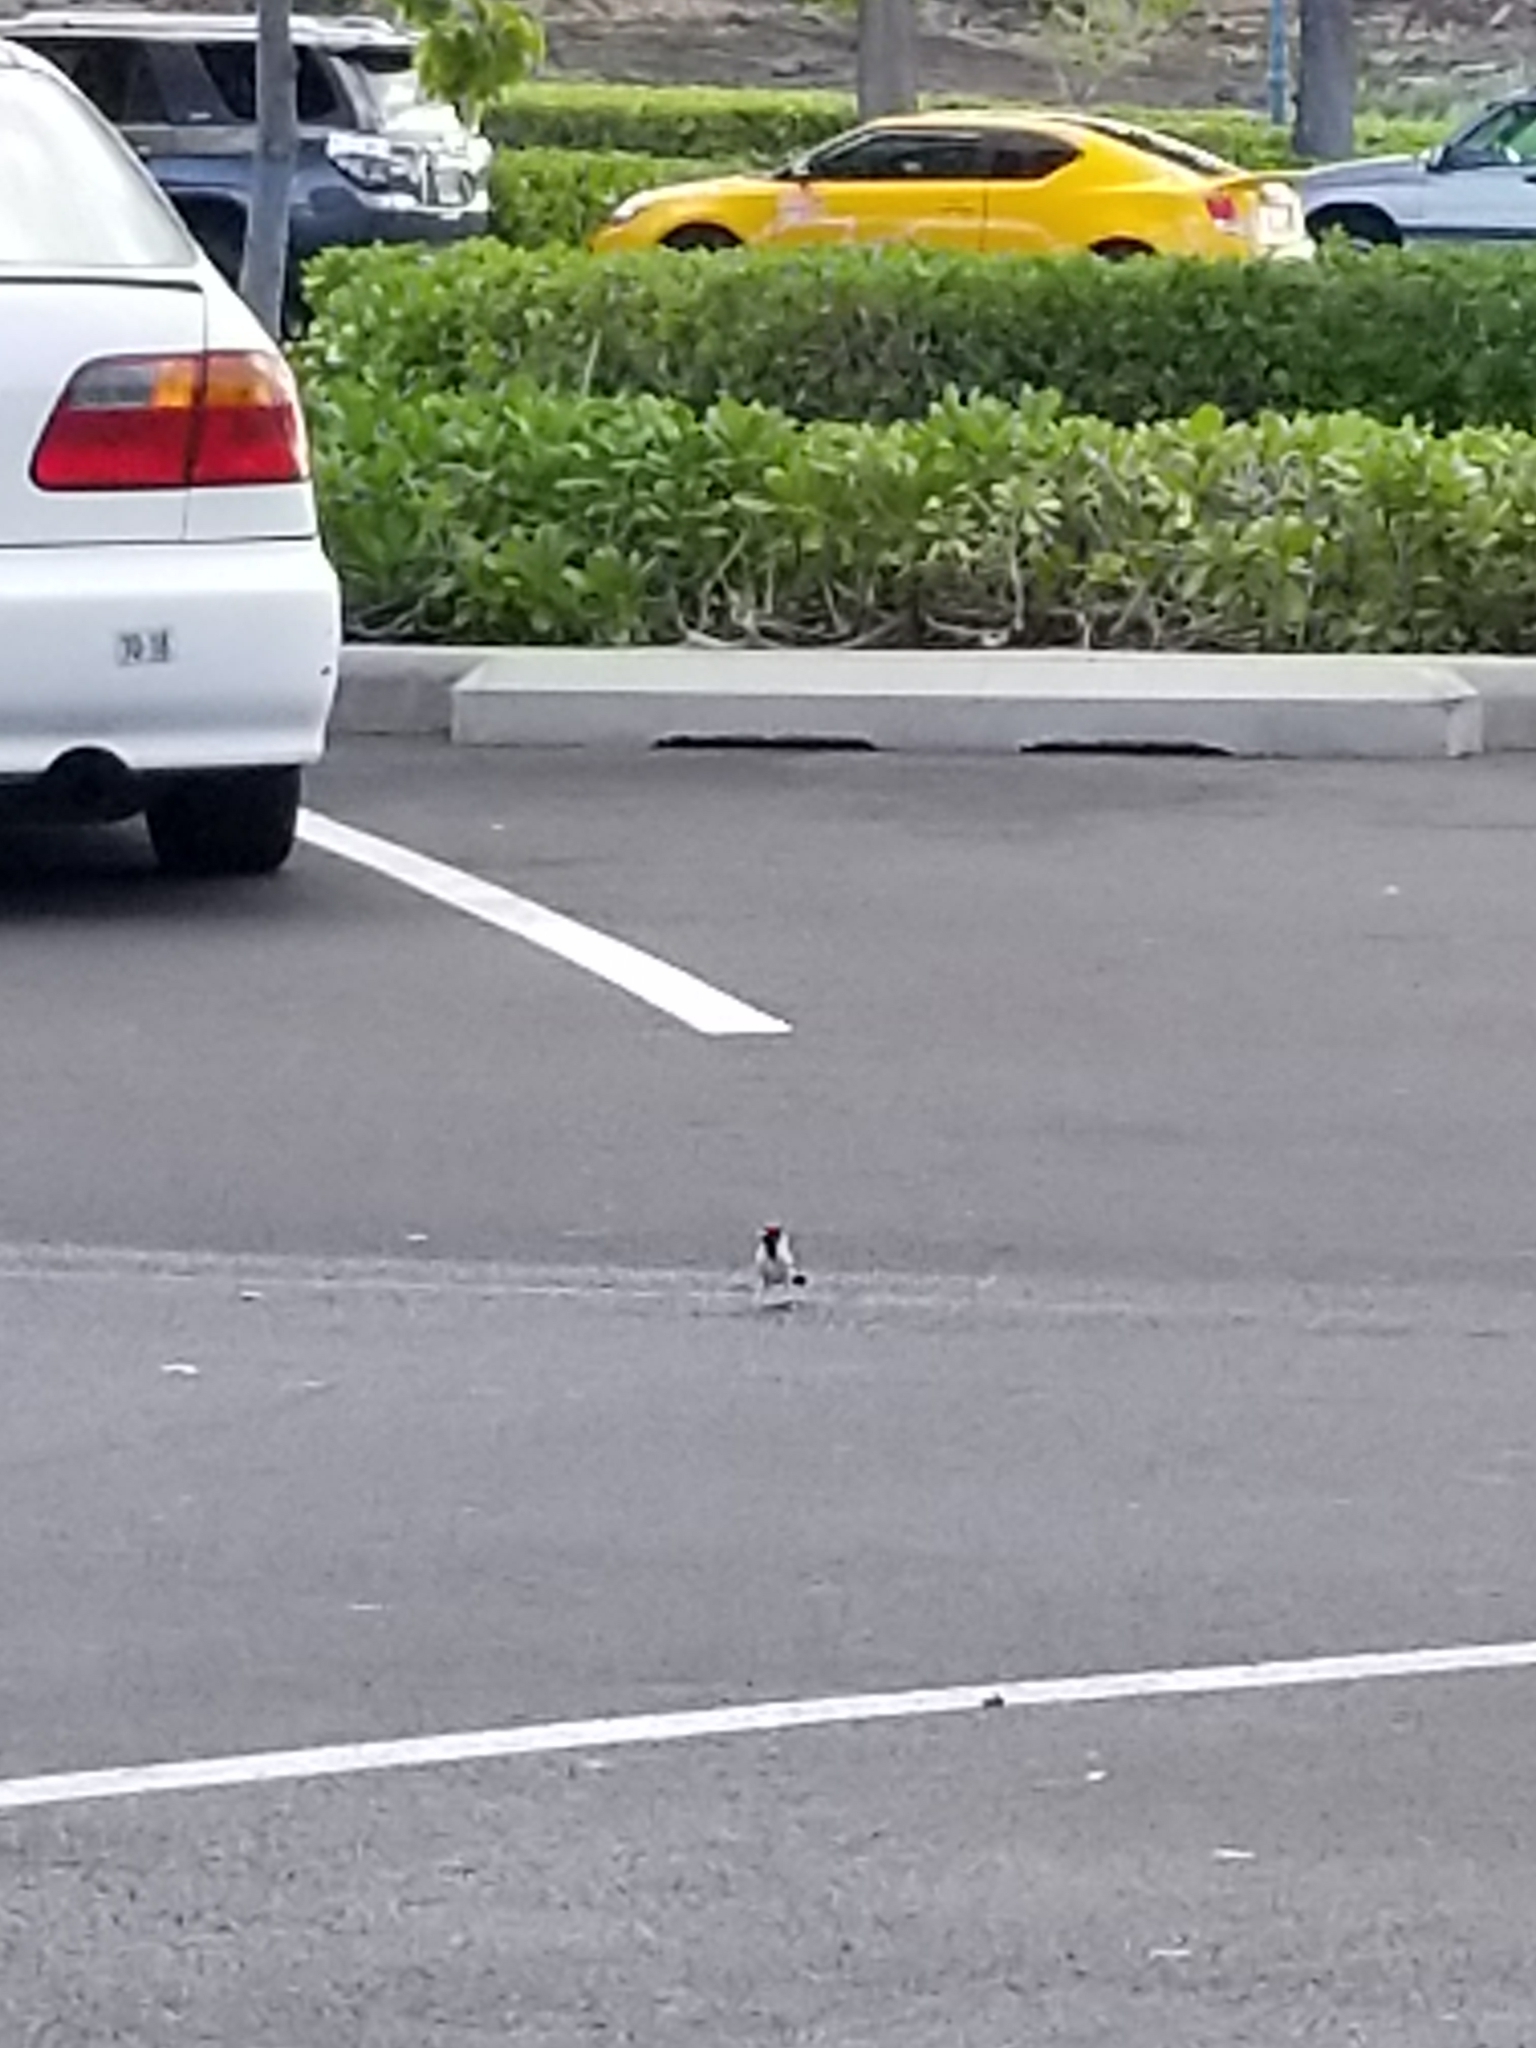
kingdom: Animalia
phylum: Chordata
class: Aves
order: Passeriformes
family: Thraupidae
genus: Paroaria
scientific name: Paroaria capitata
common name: Yellow-billed cardinal
